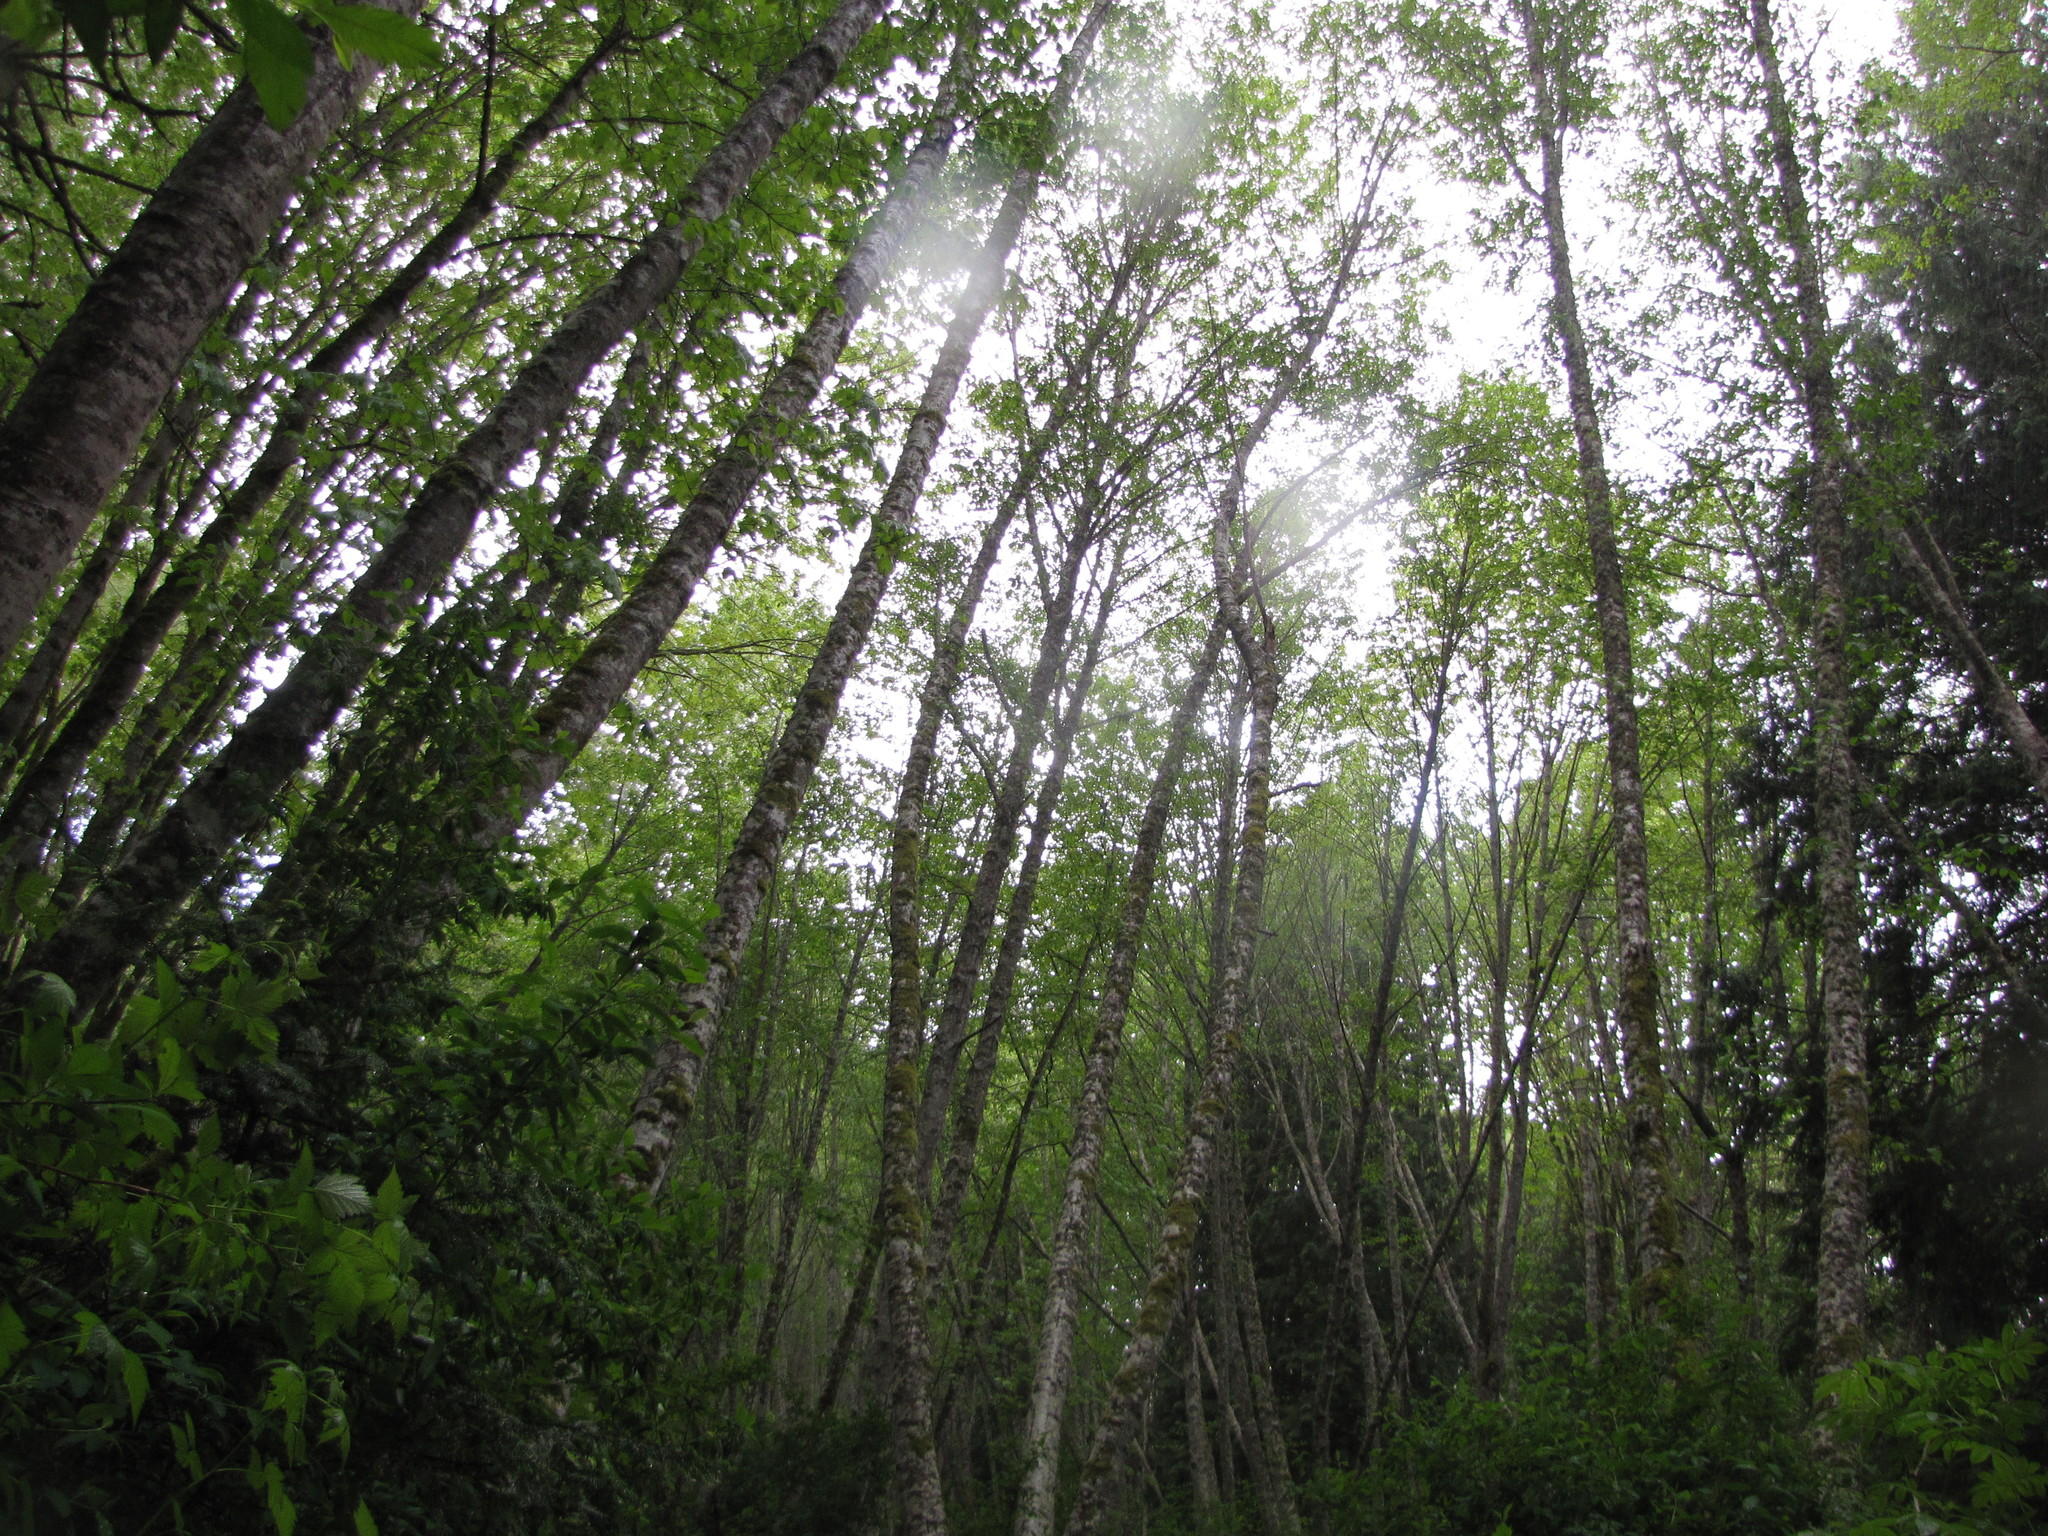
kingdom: Plantae
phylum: Tracheophyta
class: Magnoliopsida
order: Fagales
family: Betulaceae
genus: Alnus
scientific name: Alnus rubra
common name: Red alder
